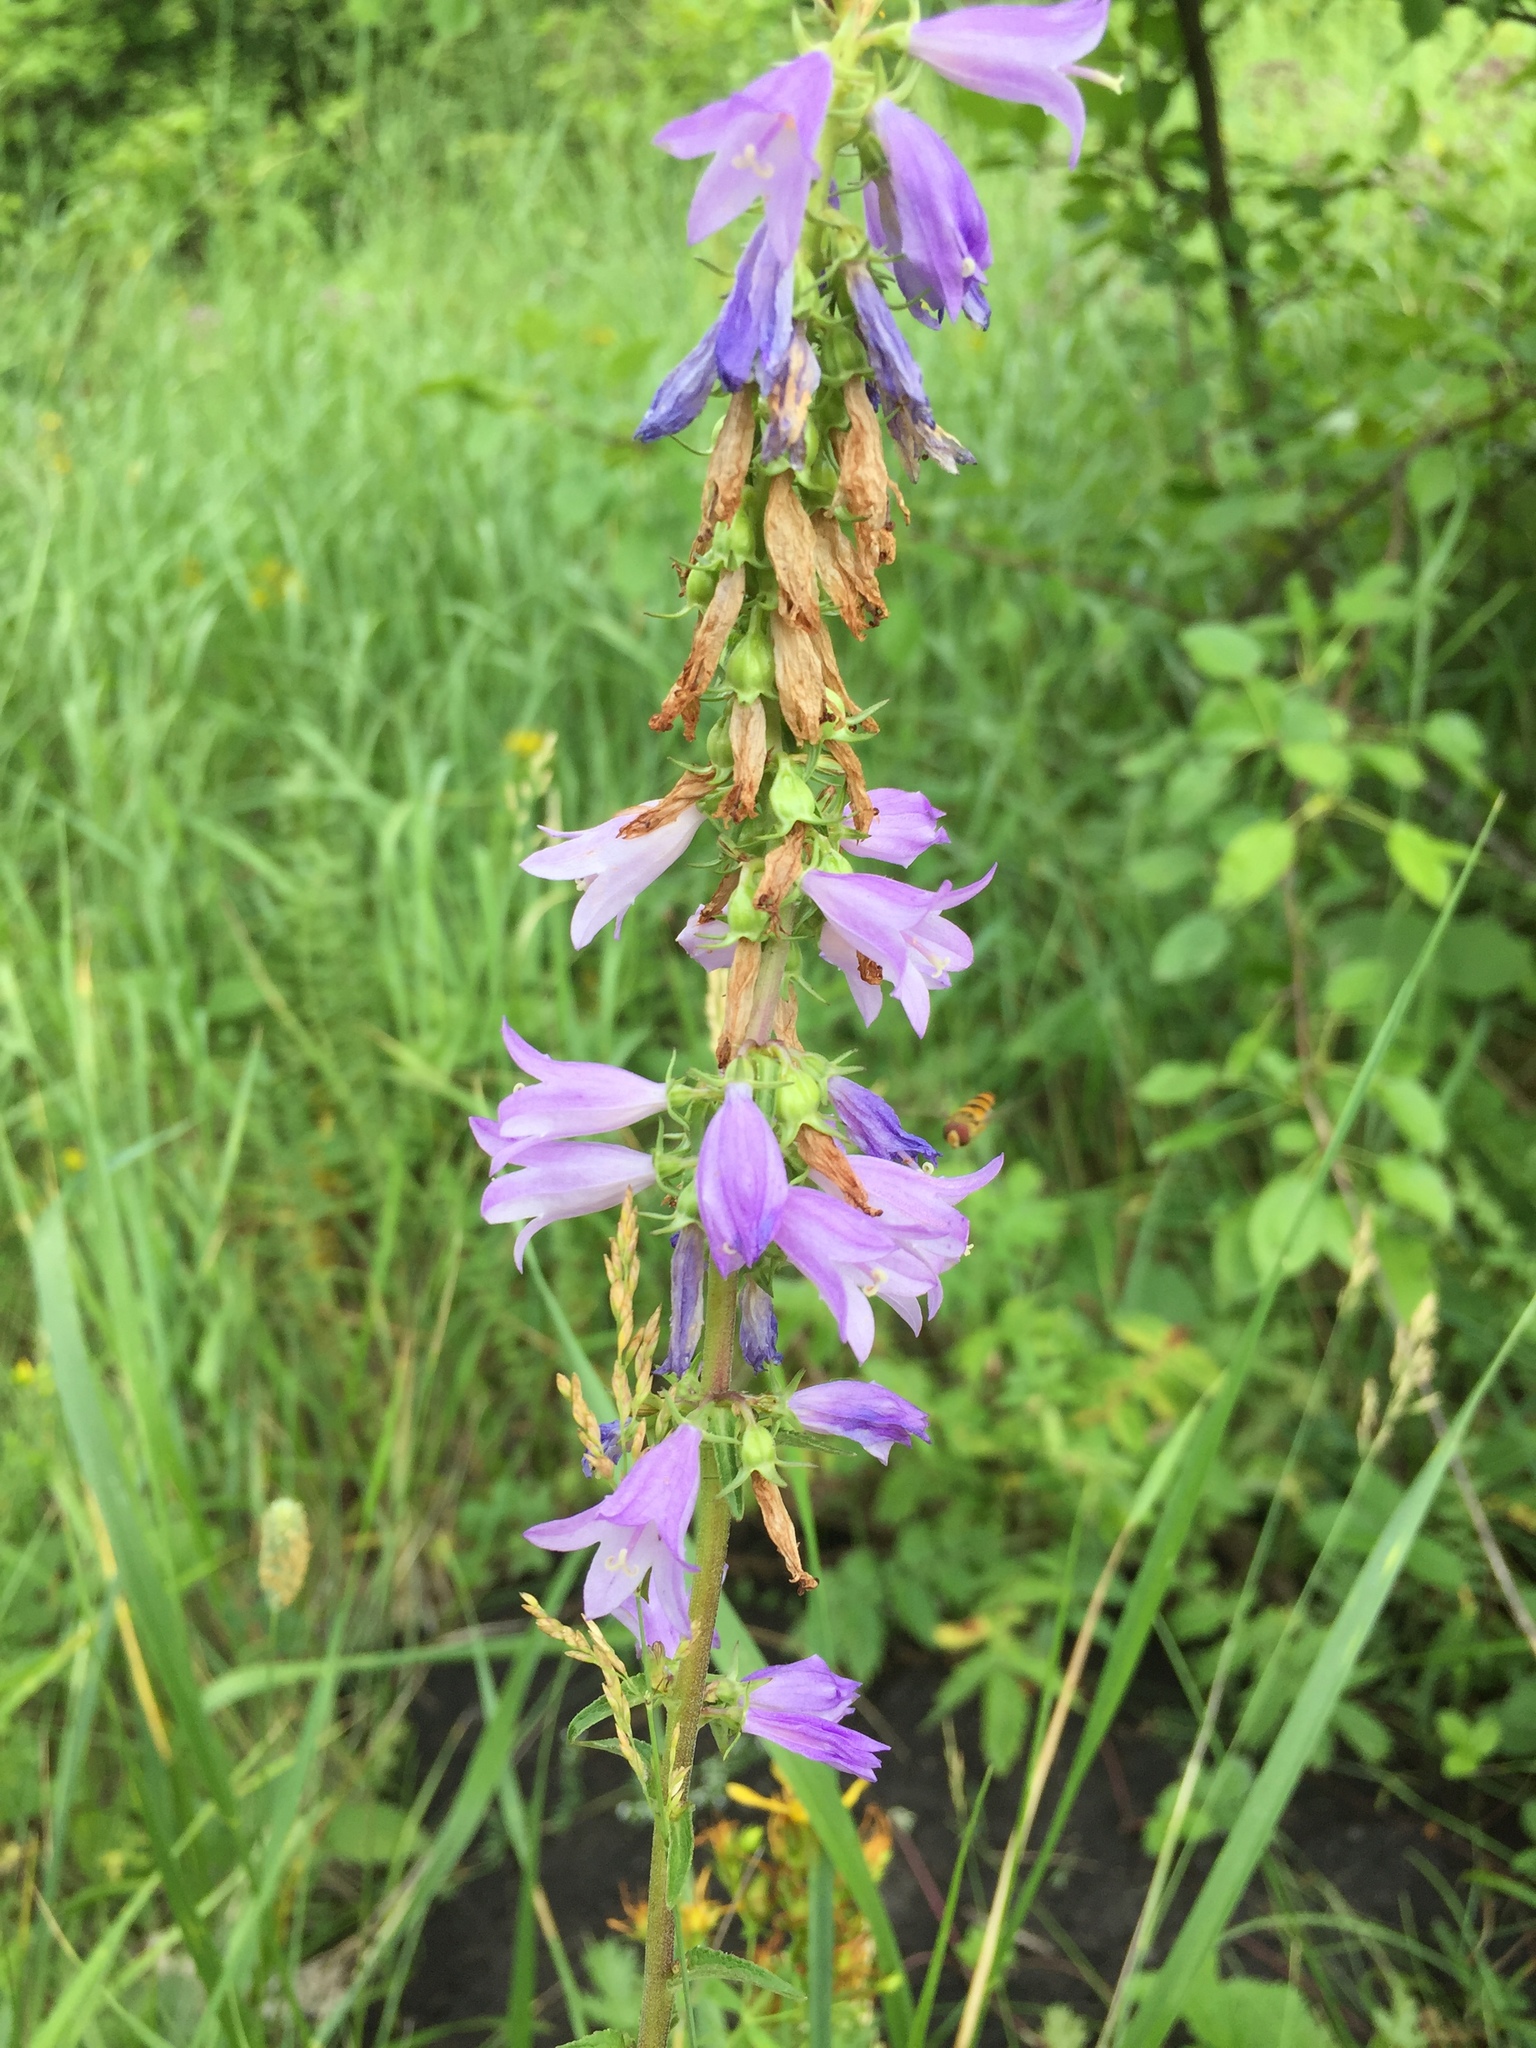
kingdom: Plantae
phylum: Tracheophyta
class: Magnoliopsida
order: Asterales
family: Campanulaceae
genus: Campanula
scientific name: Campanula rapunculoides
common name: Creeping bellflower
